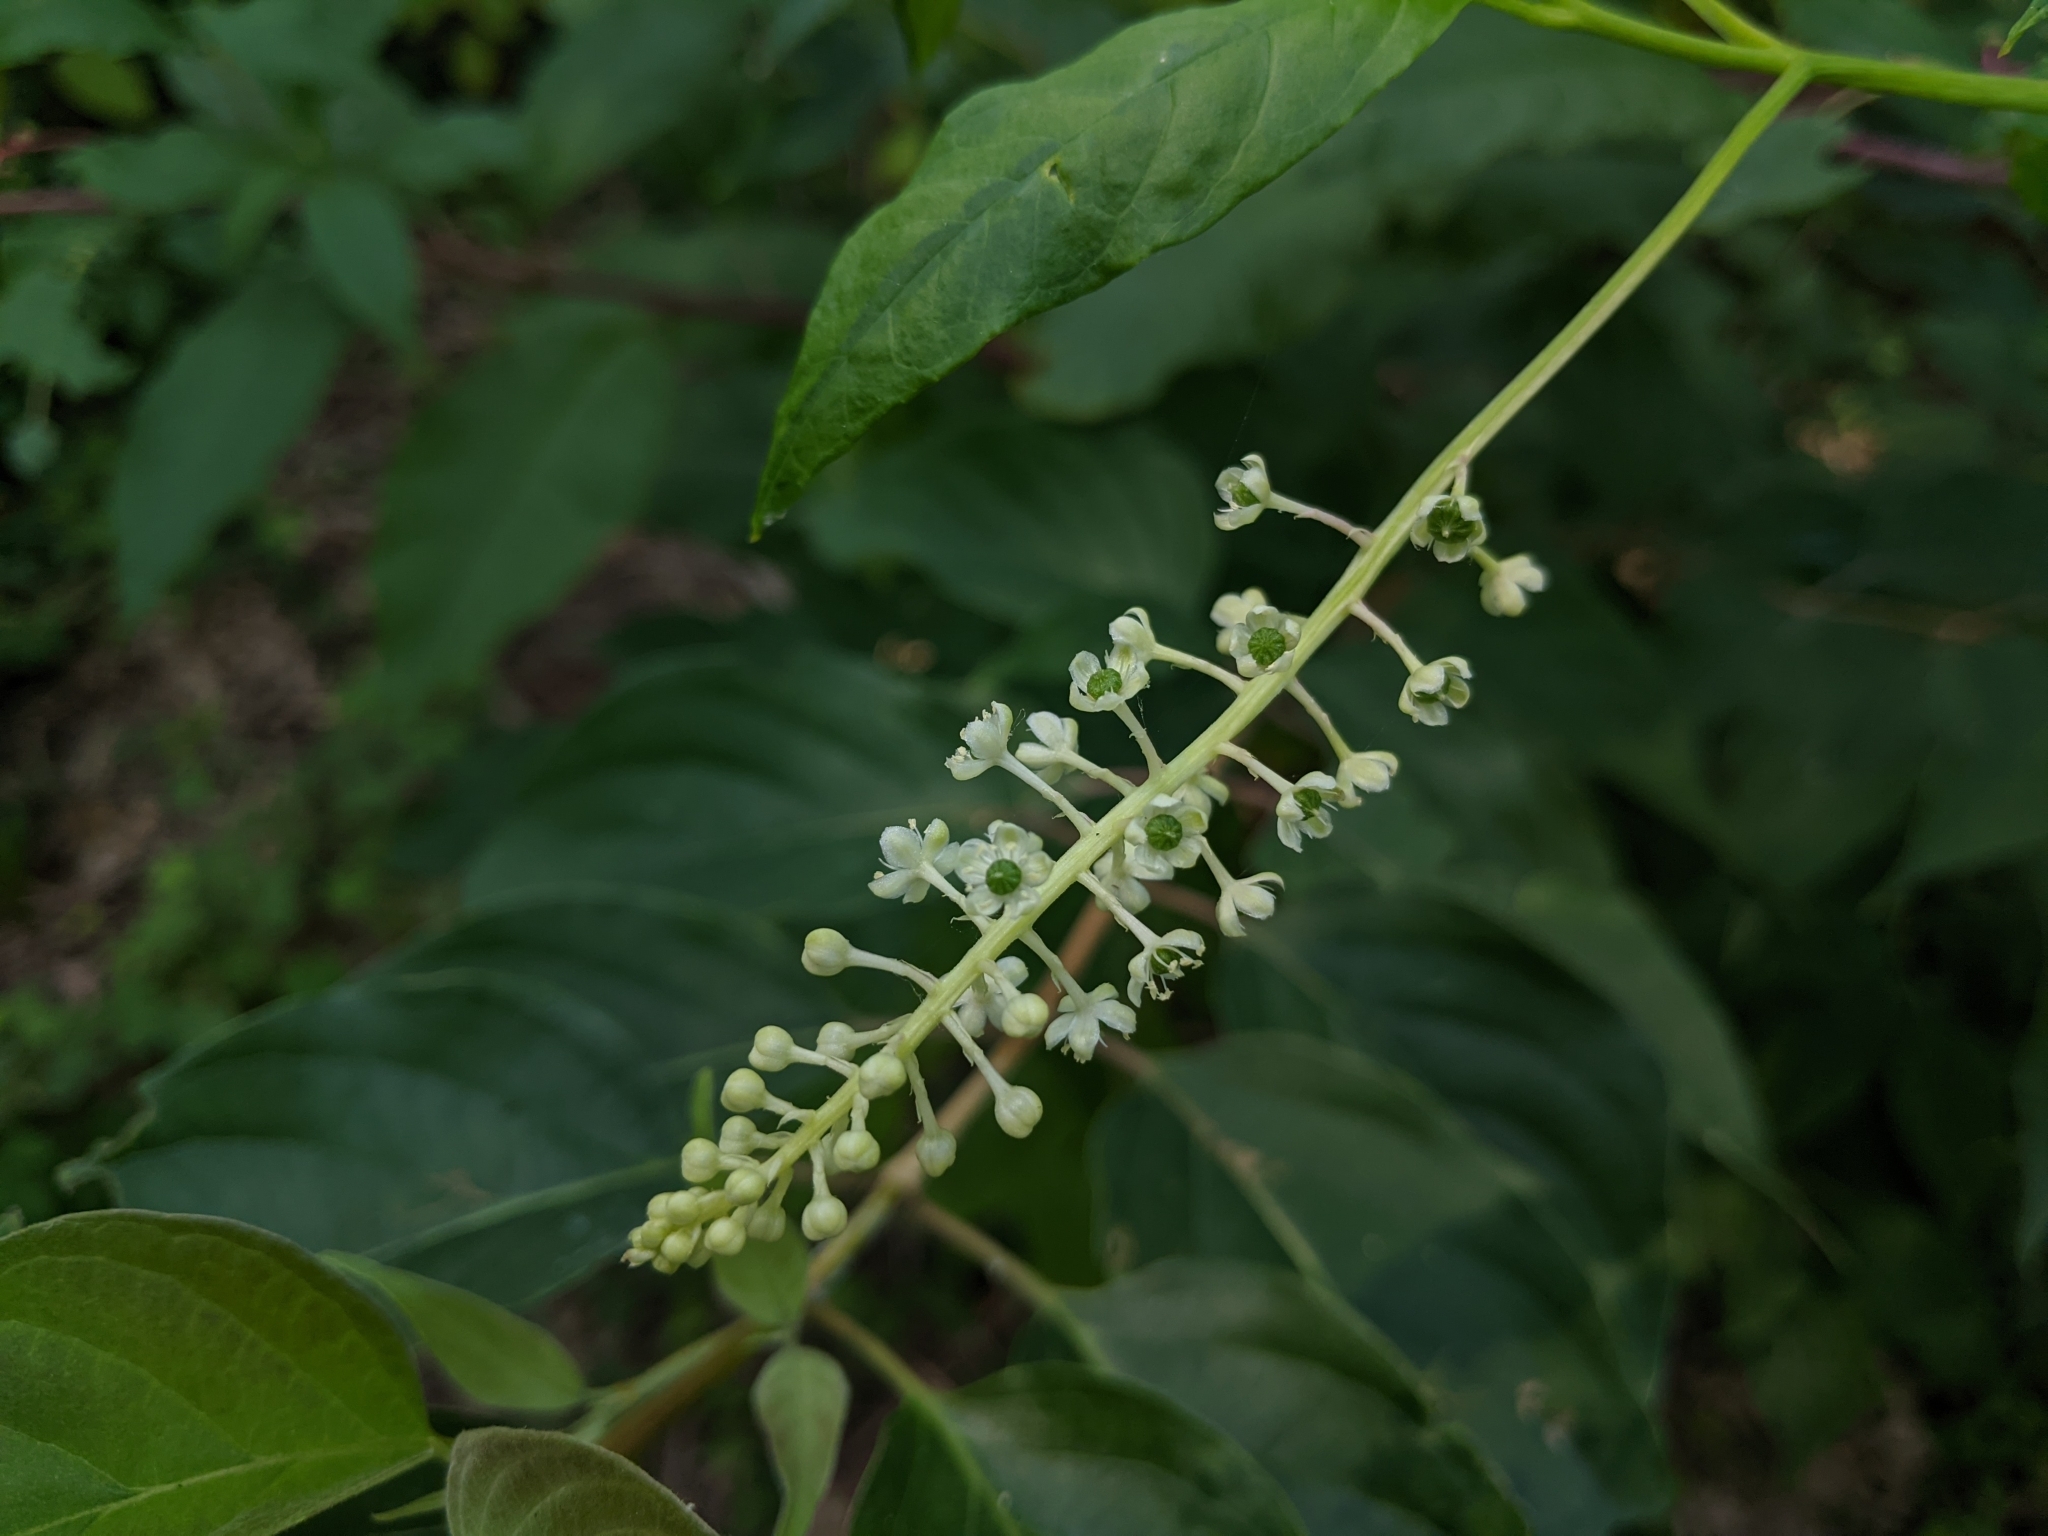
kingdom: Plantae
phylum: Tracheophyta
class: Magnoliopsida
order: Caryophyllales
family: Phytolaccaceae
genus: Phytolacca
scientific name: Phytolacca americana
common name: American pokeweed
